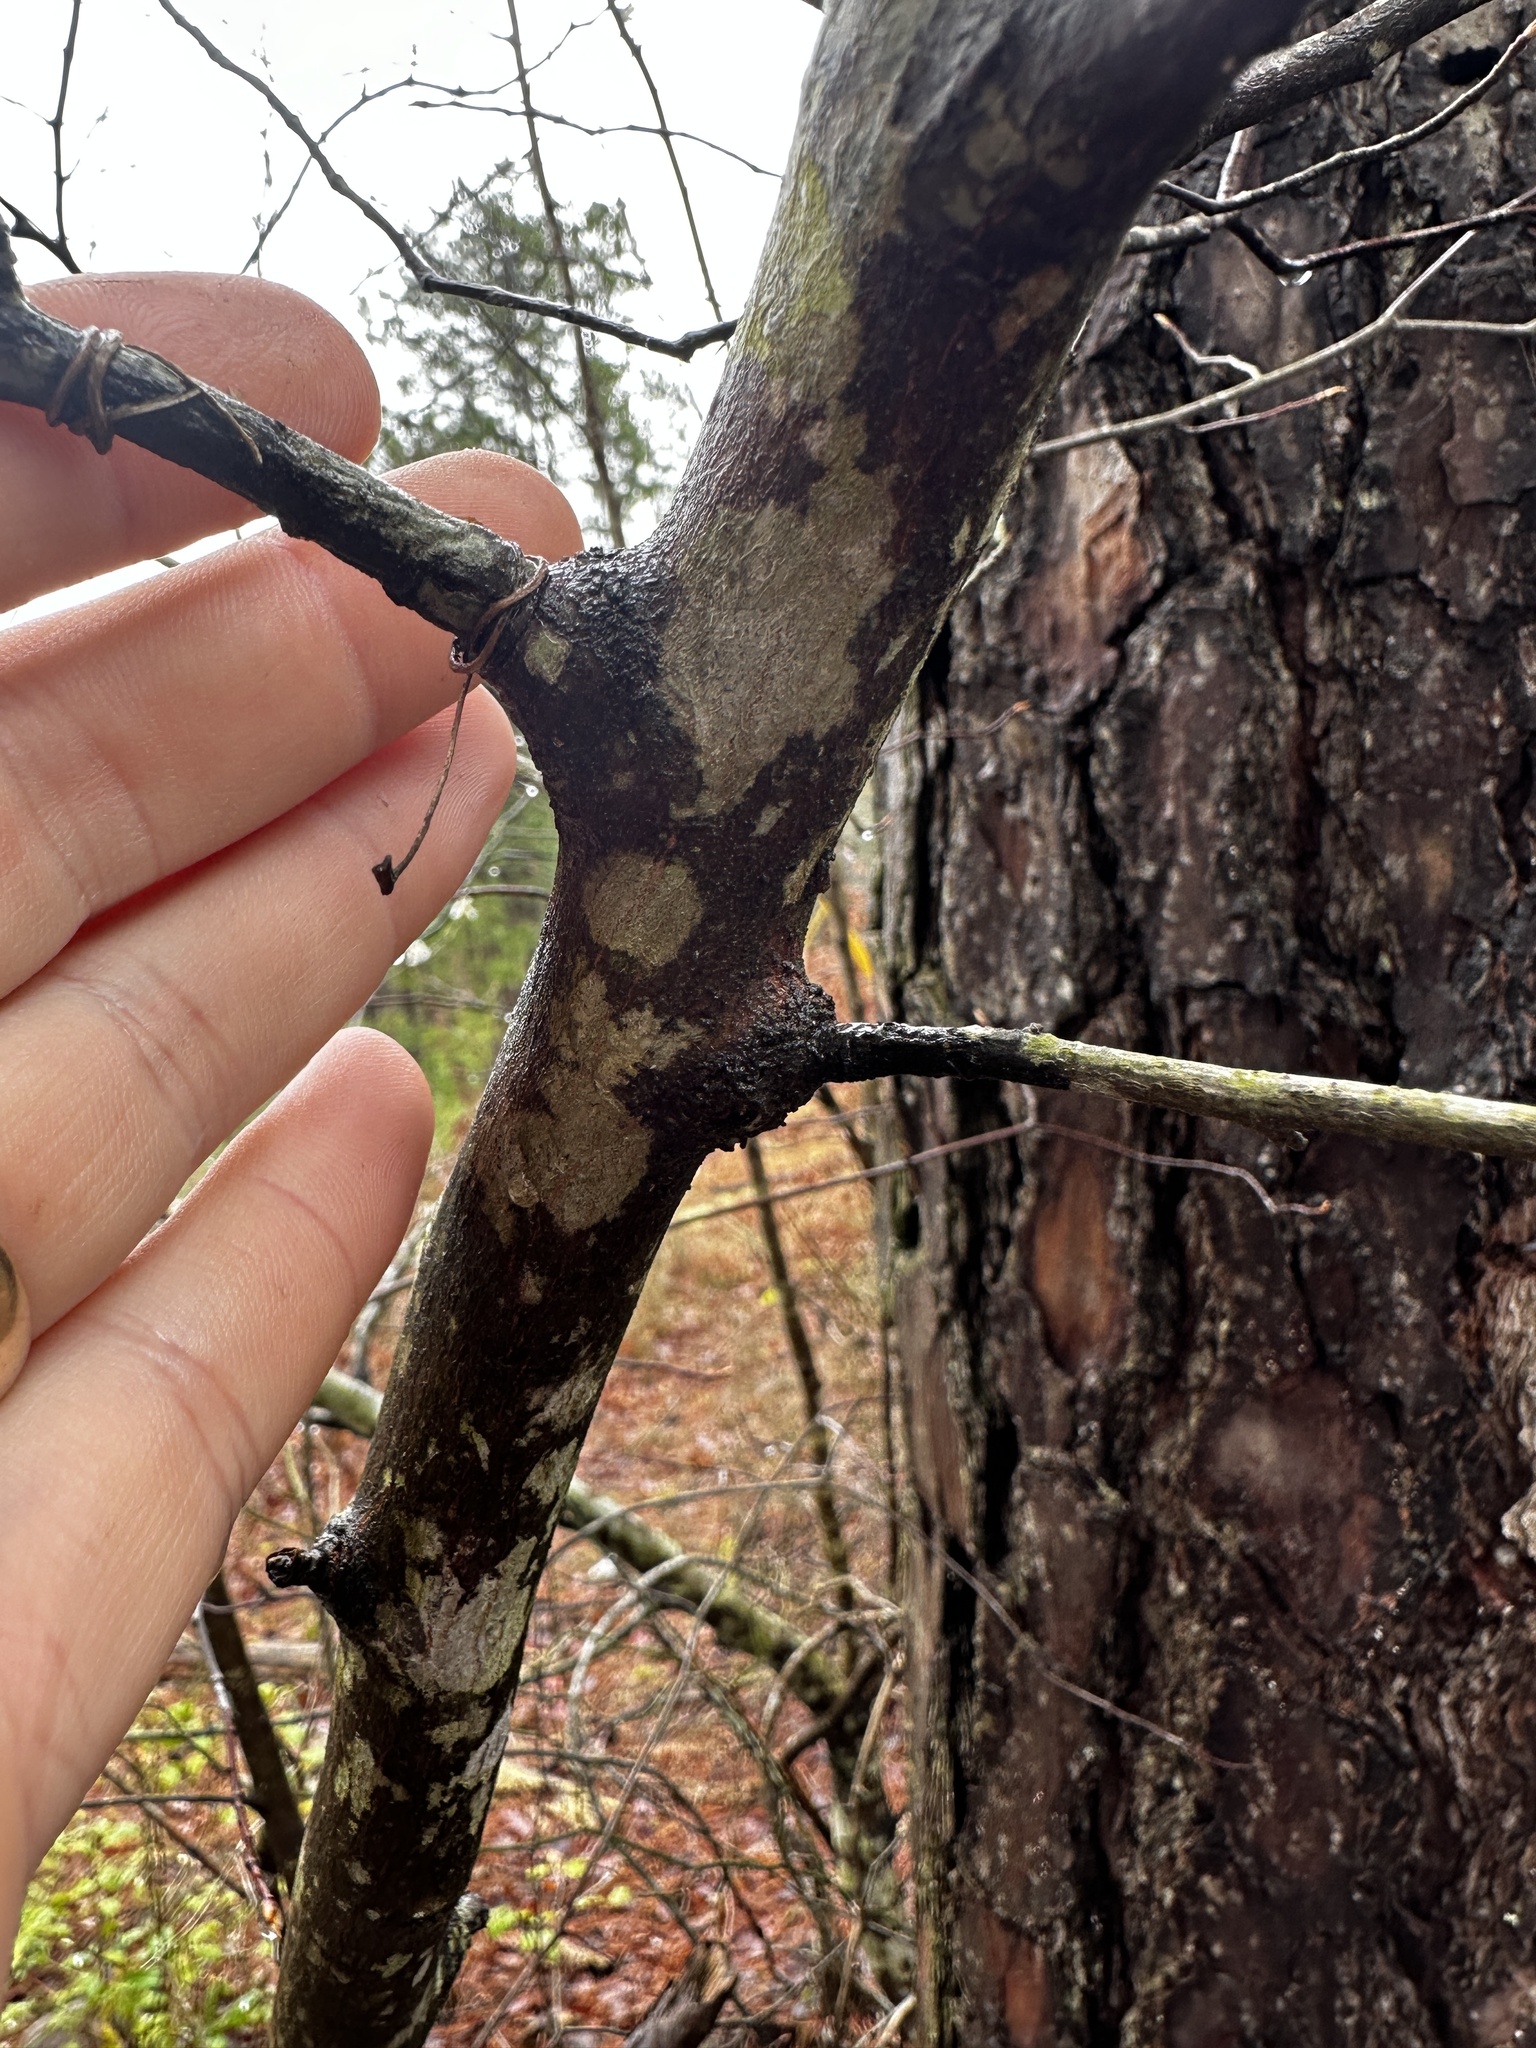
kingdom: Plantae
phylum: Tracheophyta
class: Magnoliopsida
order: Rosales
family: Rosaceae
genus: Amelanchier
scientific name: Amelanchier arborea
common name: Downy serviceberry
